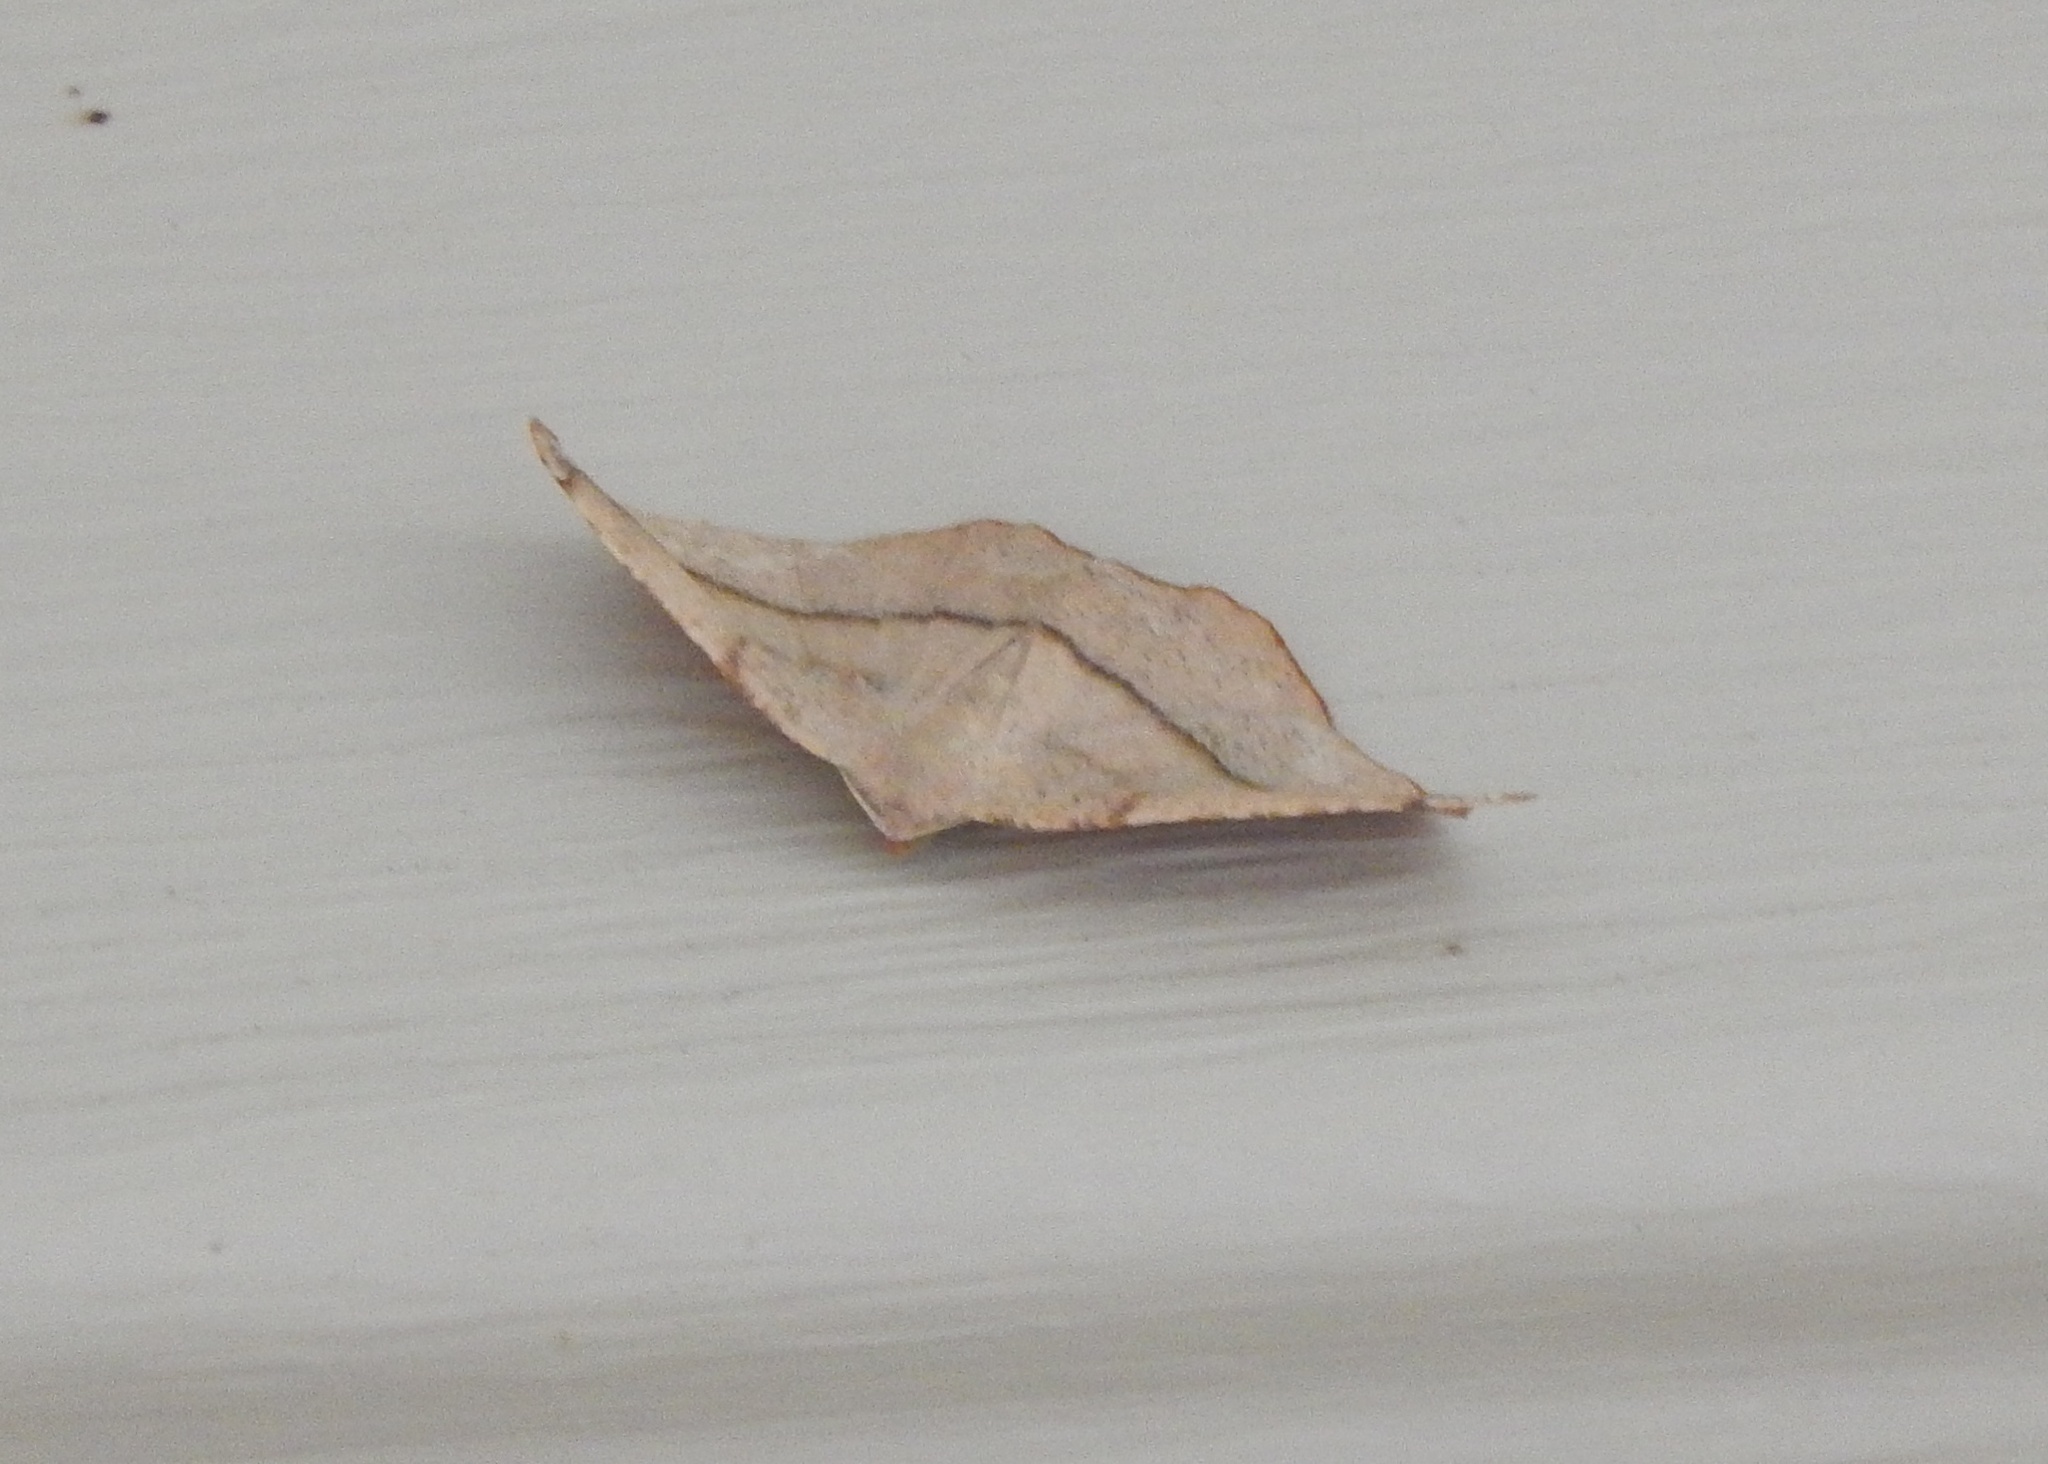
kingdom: Animalia
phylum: Arthropoda
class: Insecta
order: Lepidoptera
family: Geometridae
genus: Patalene
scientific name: Patalene olyzonaria
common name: Juniper geometer moth
